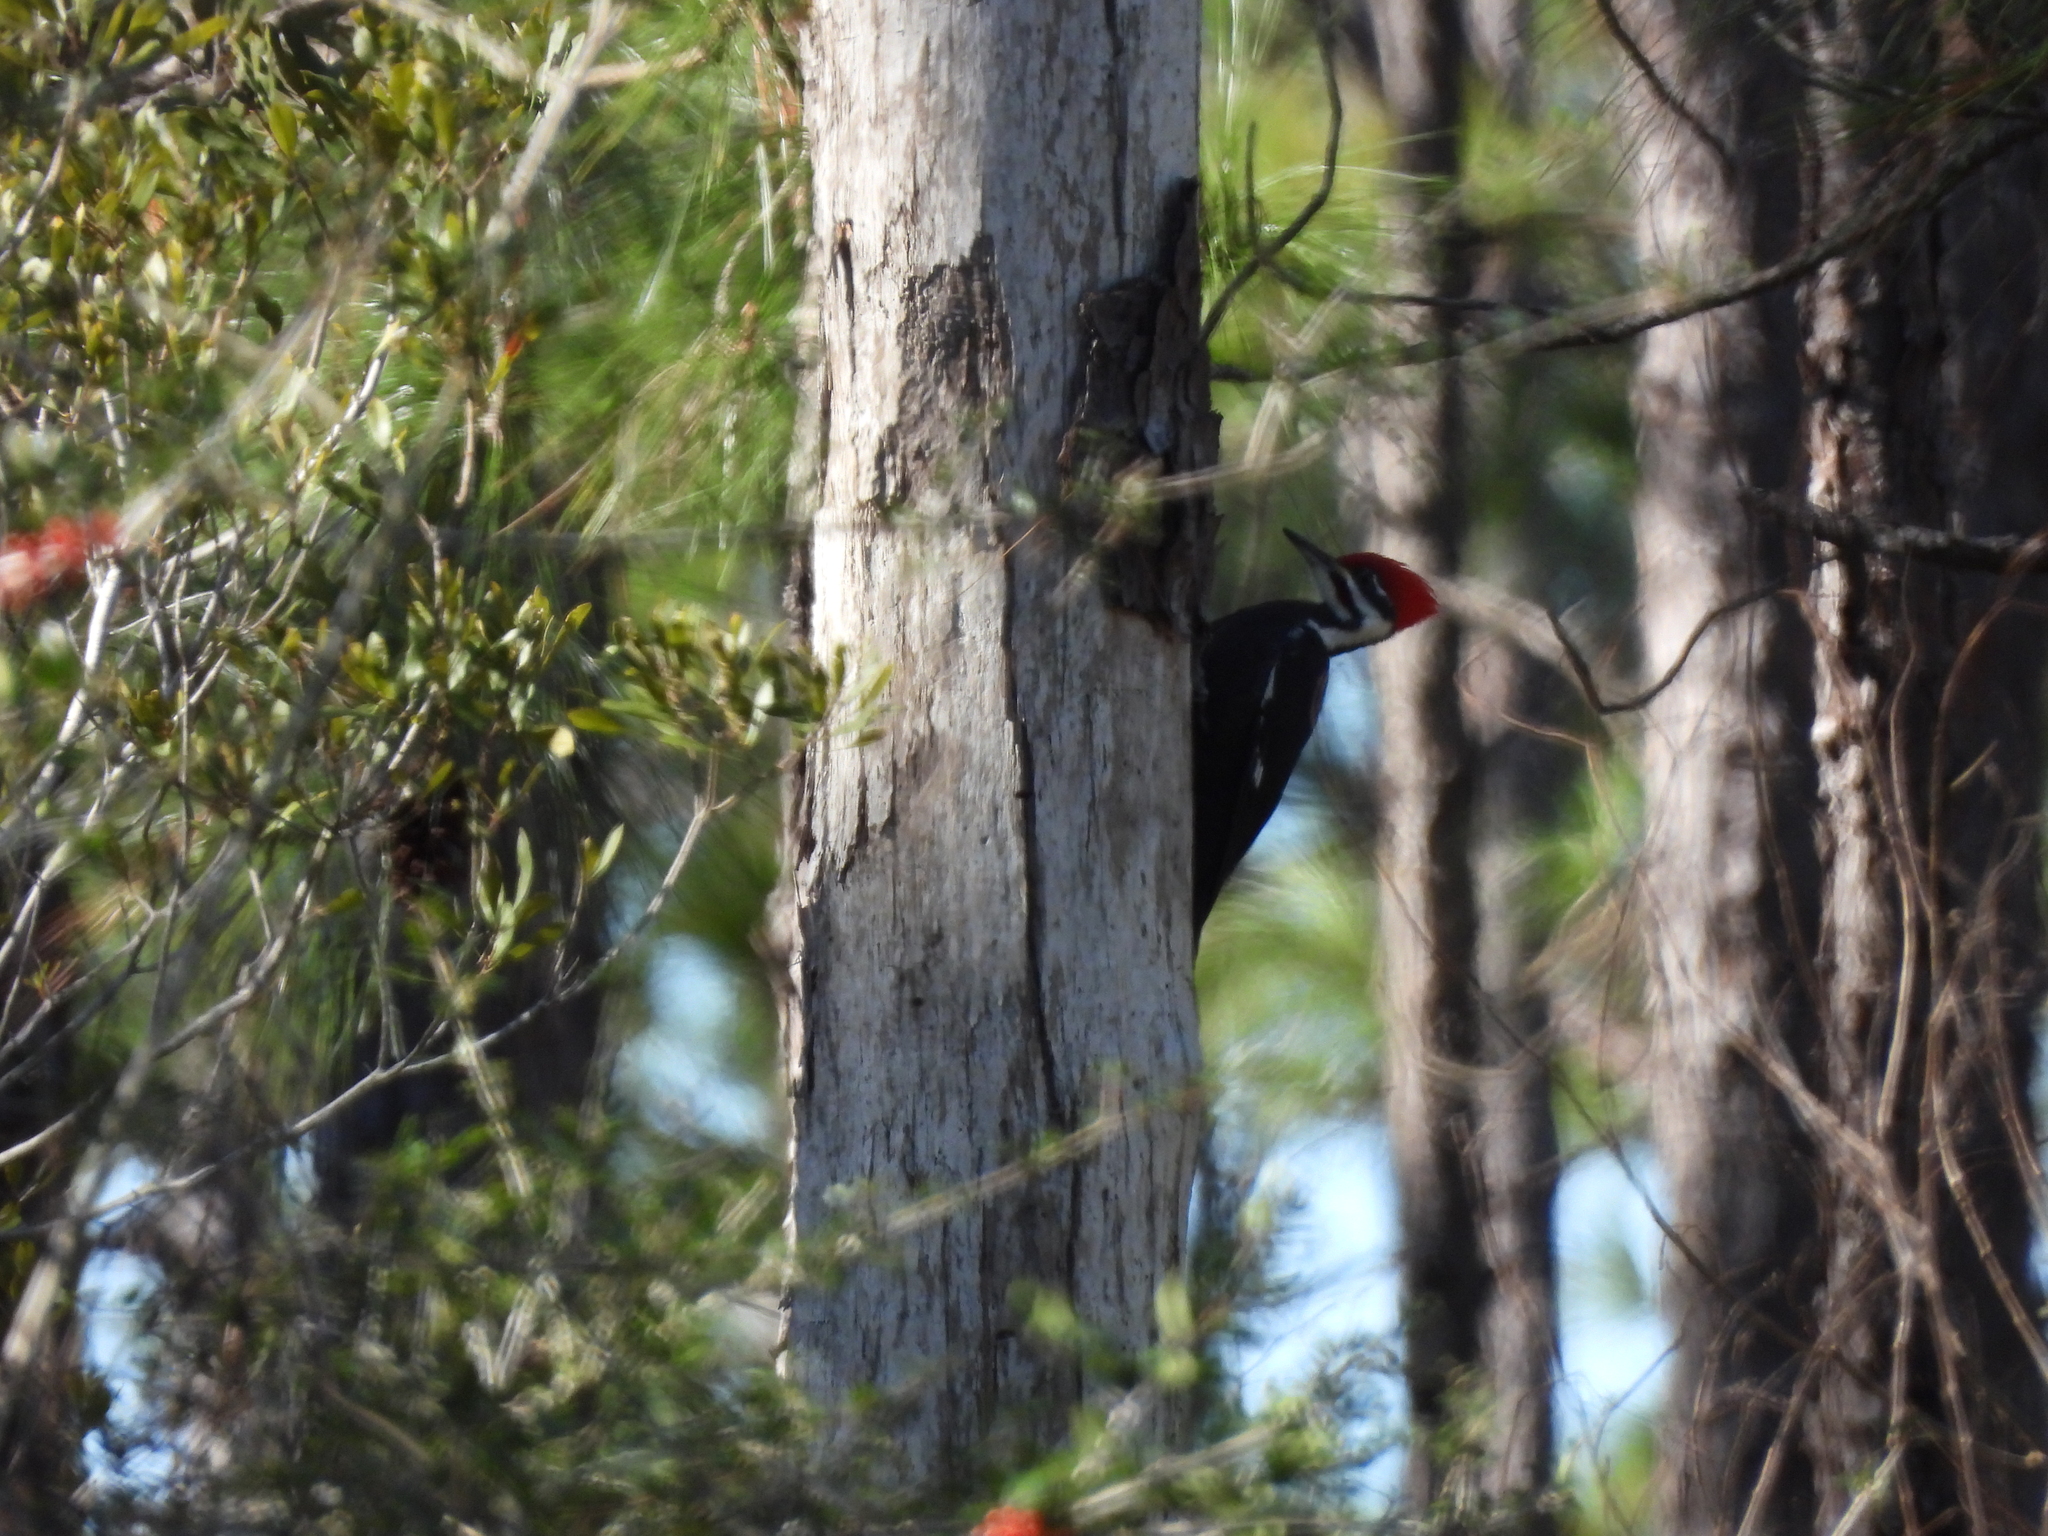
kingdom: Animalia
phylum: Chordata
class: Aves
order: Piciformes
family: Picidae
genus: Dryocopus
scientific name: Dryocopus pileatus
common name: Pileated woodpecker
